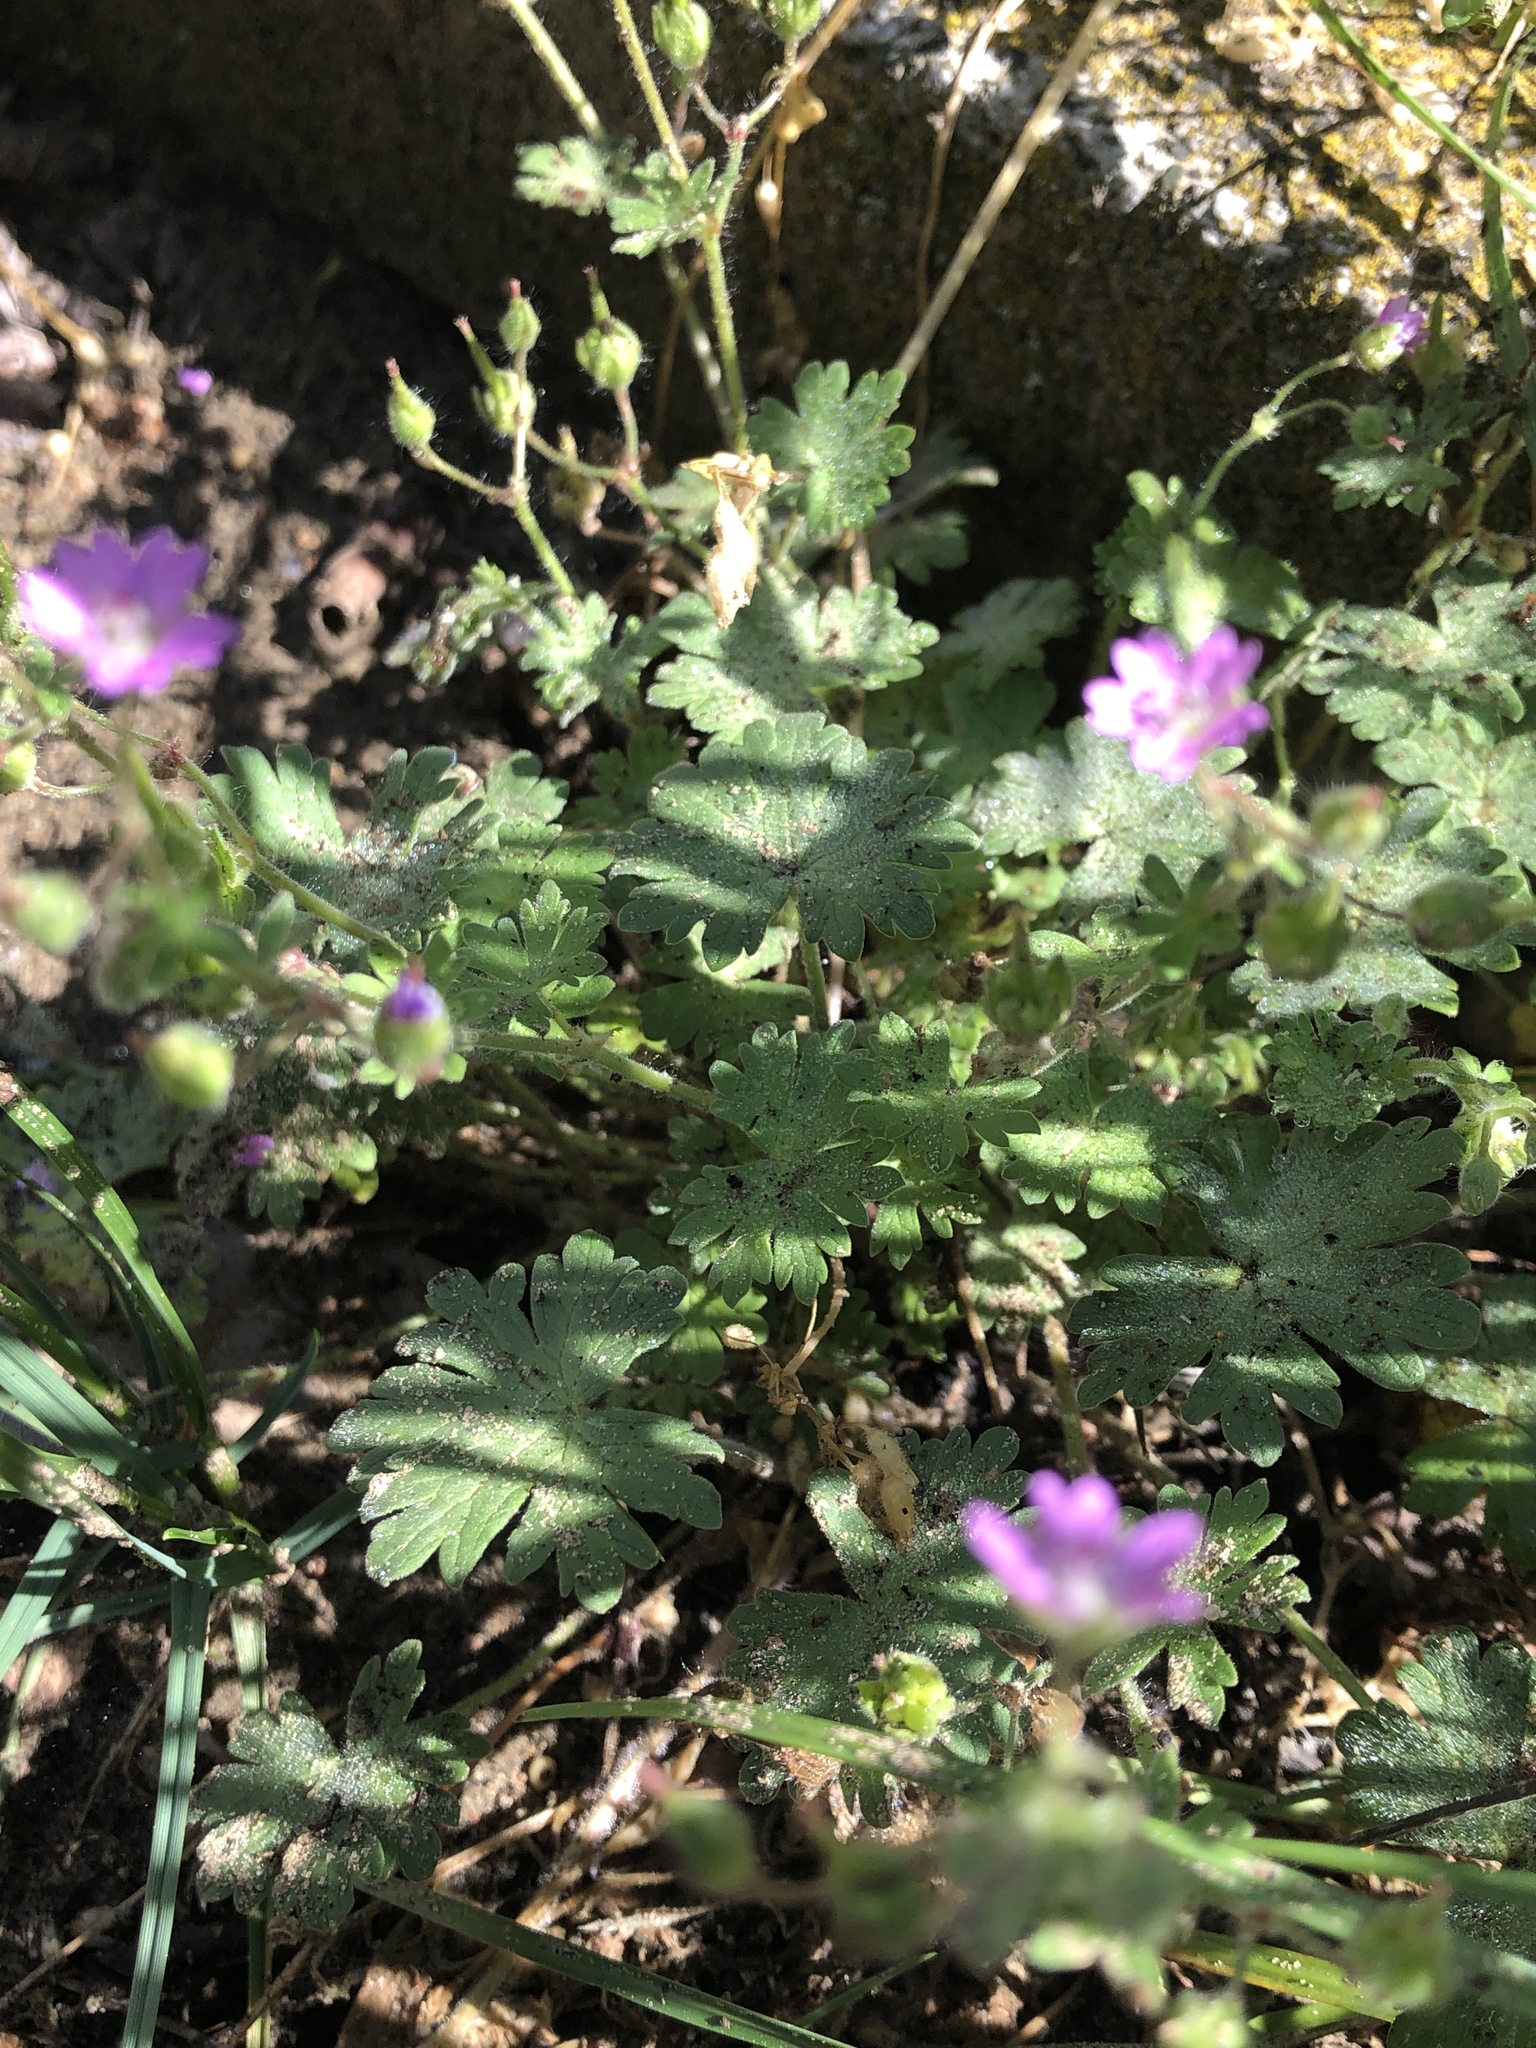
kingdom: Plantae
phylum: Tracheophyta
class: Magnoliopsida
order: Geraniales
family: Geraniaceae
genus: Geranium
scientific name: Geranium molle
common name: Dove's-foot crane's-bill
